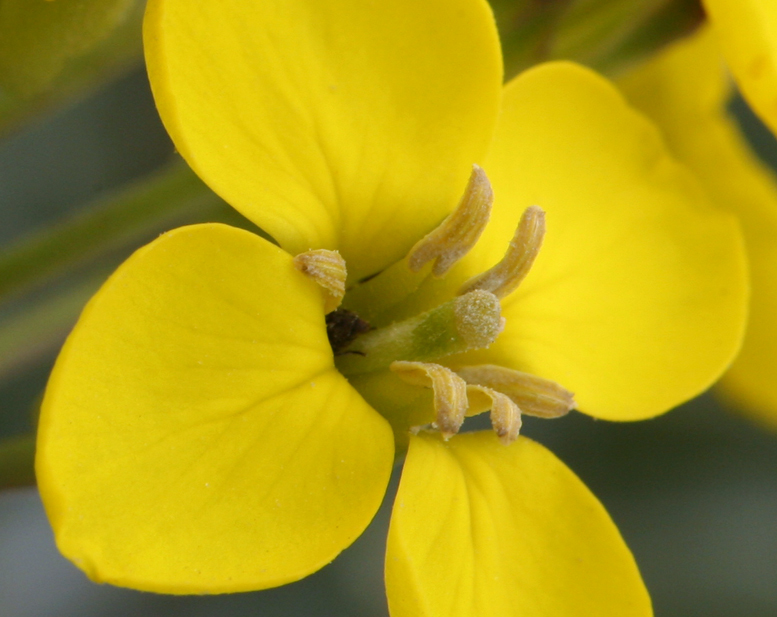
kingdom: Plantae
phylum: Tracheophyta
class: Magnoliopsida
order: Brassicales
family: Brassicaceae
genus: Erysimum
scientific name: Erysimum insulare
